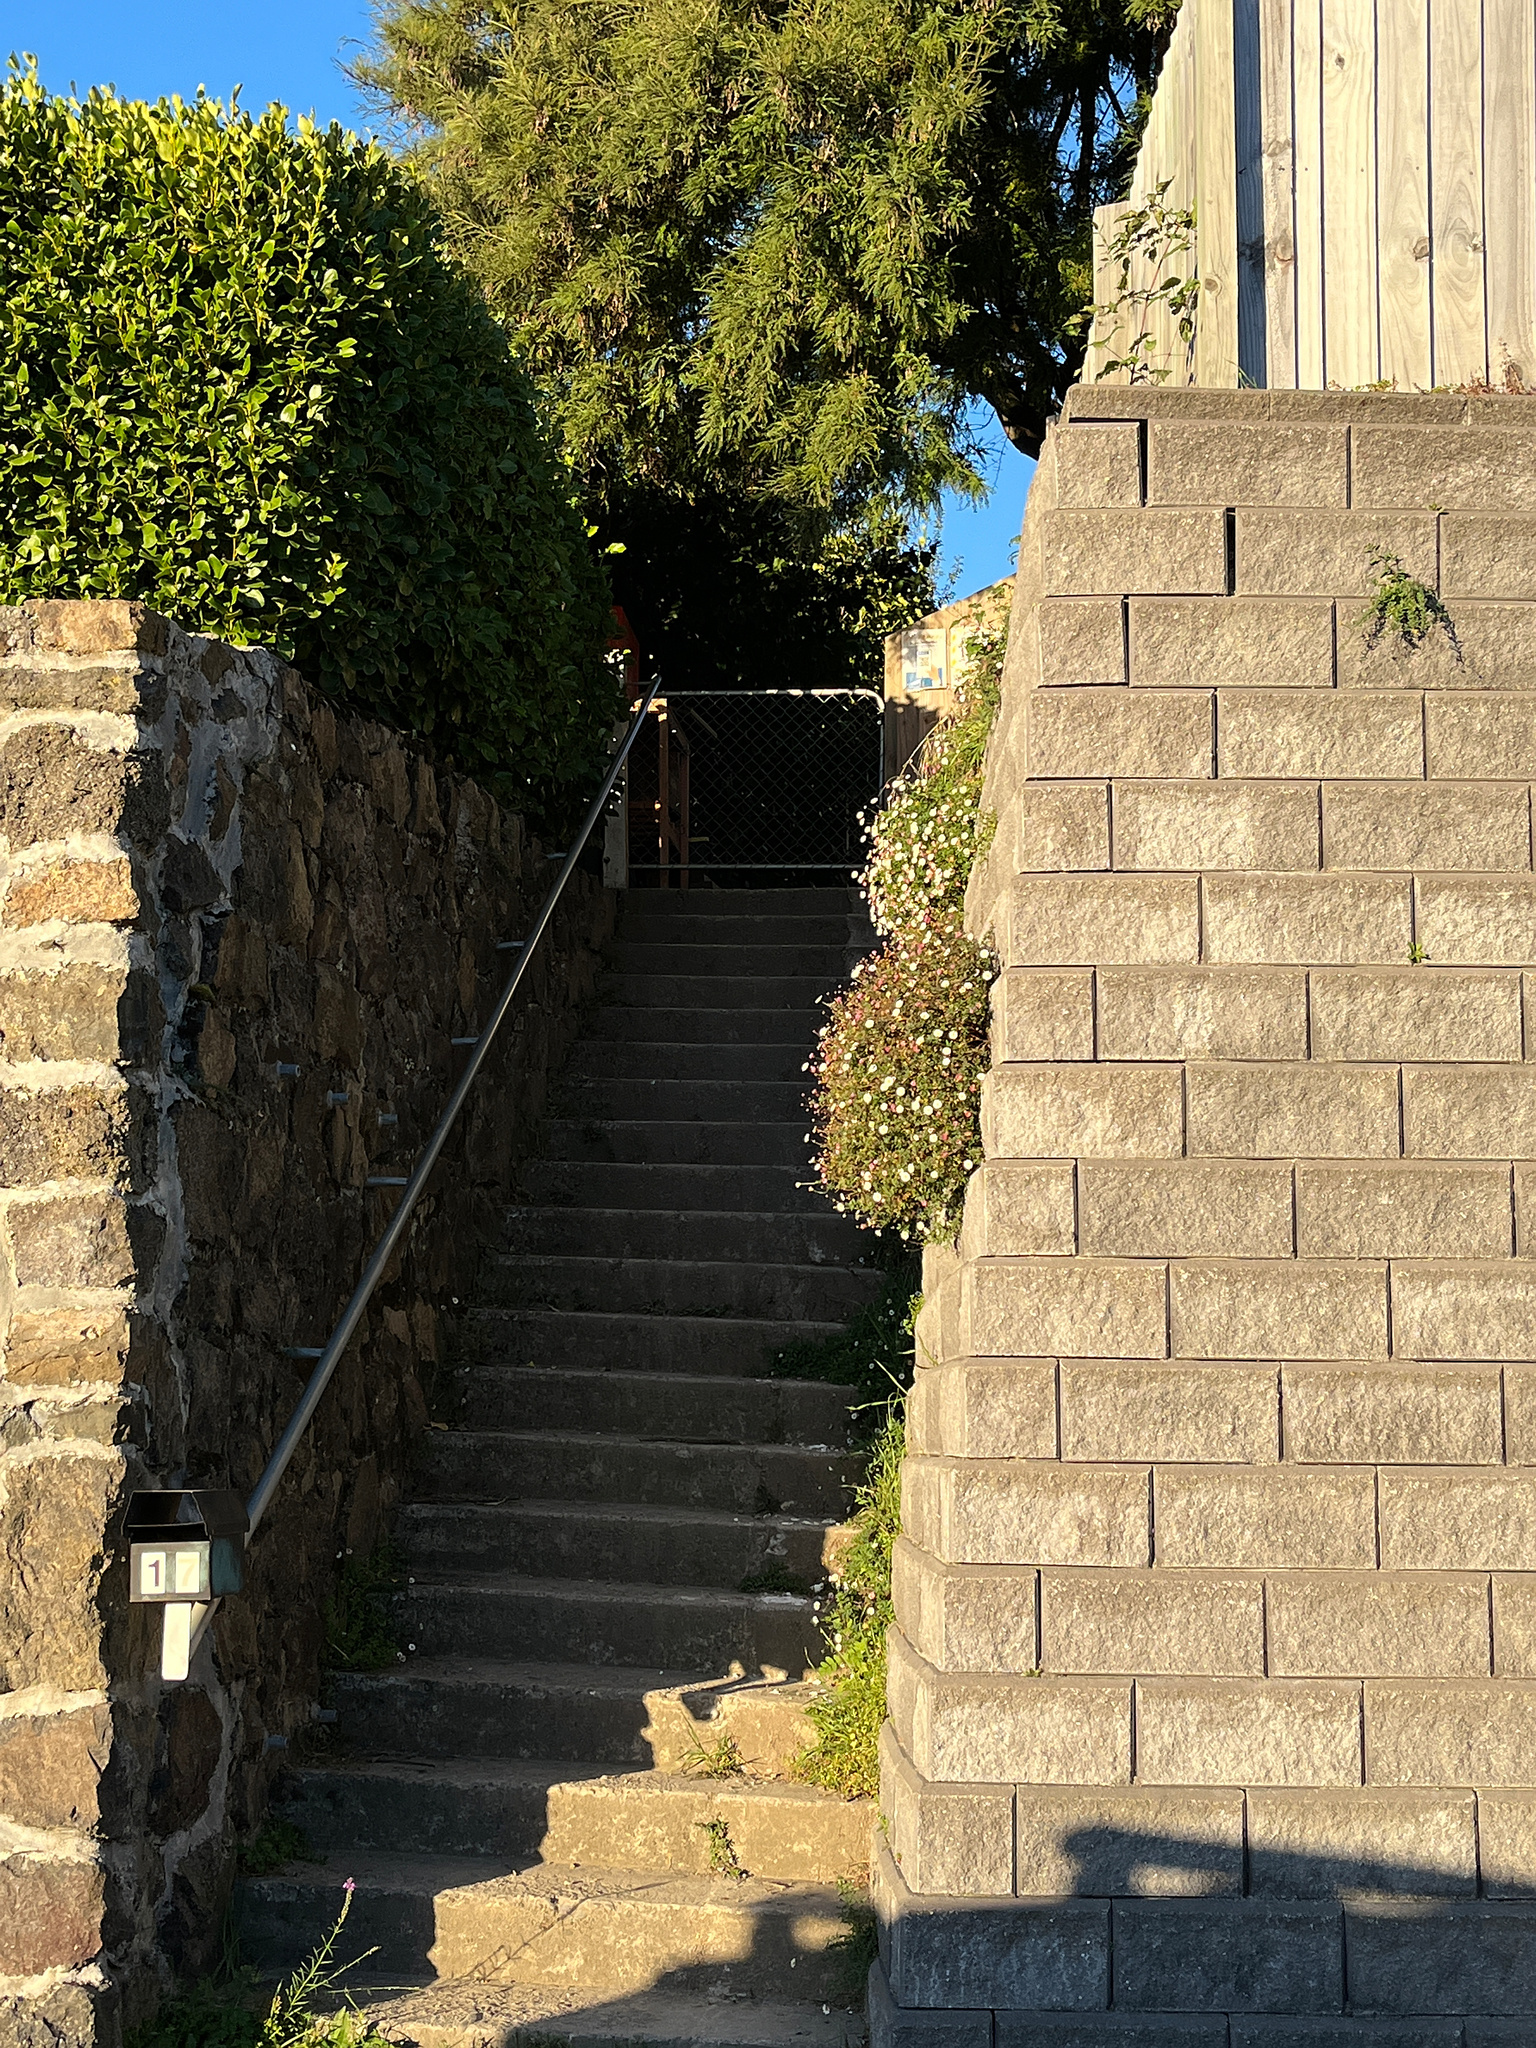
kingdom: Plantae
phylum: Tracheophyta
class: Magnoliopsida
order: Asterales
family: Asteraceae
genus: Erigeron
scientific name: Erigeron karvinskianus
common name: Mexican fleabane
